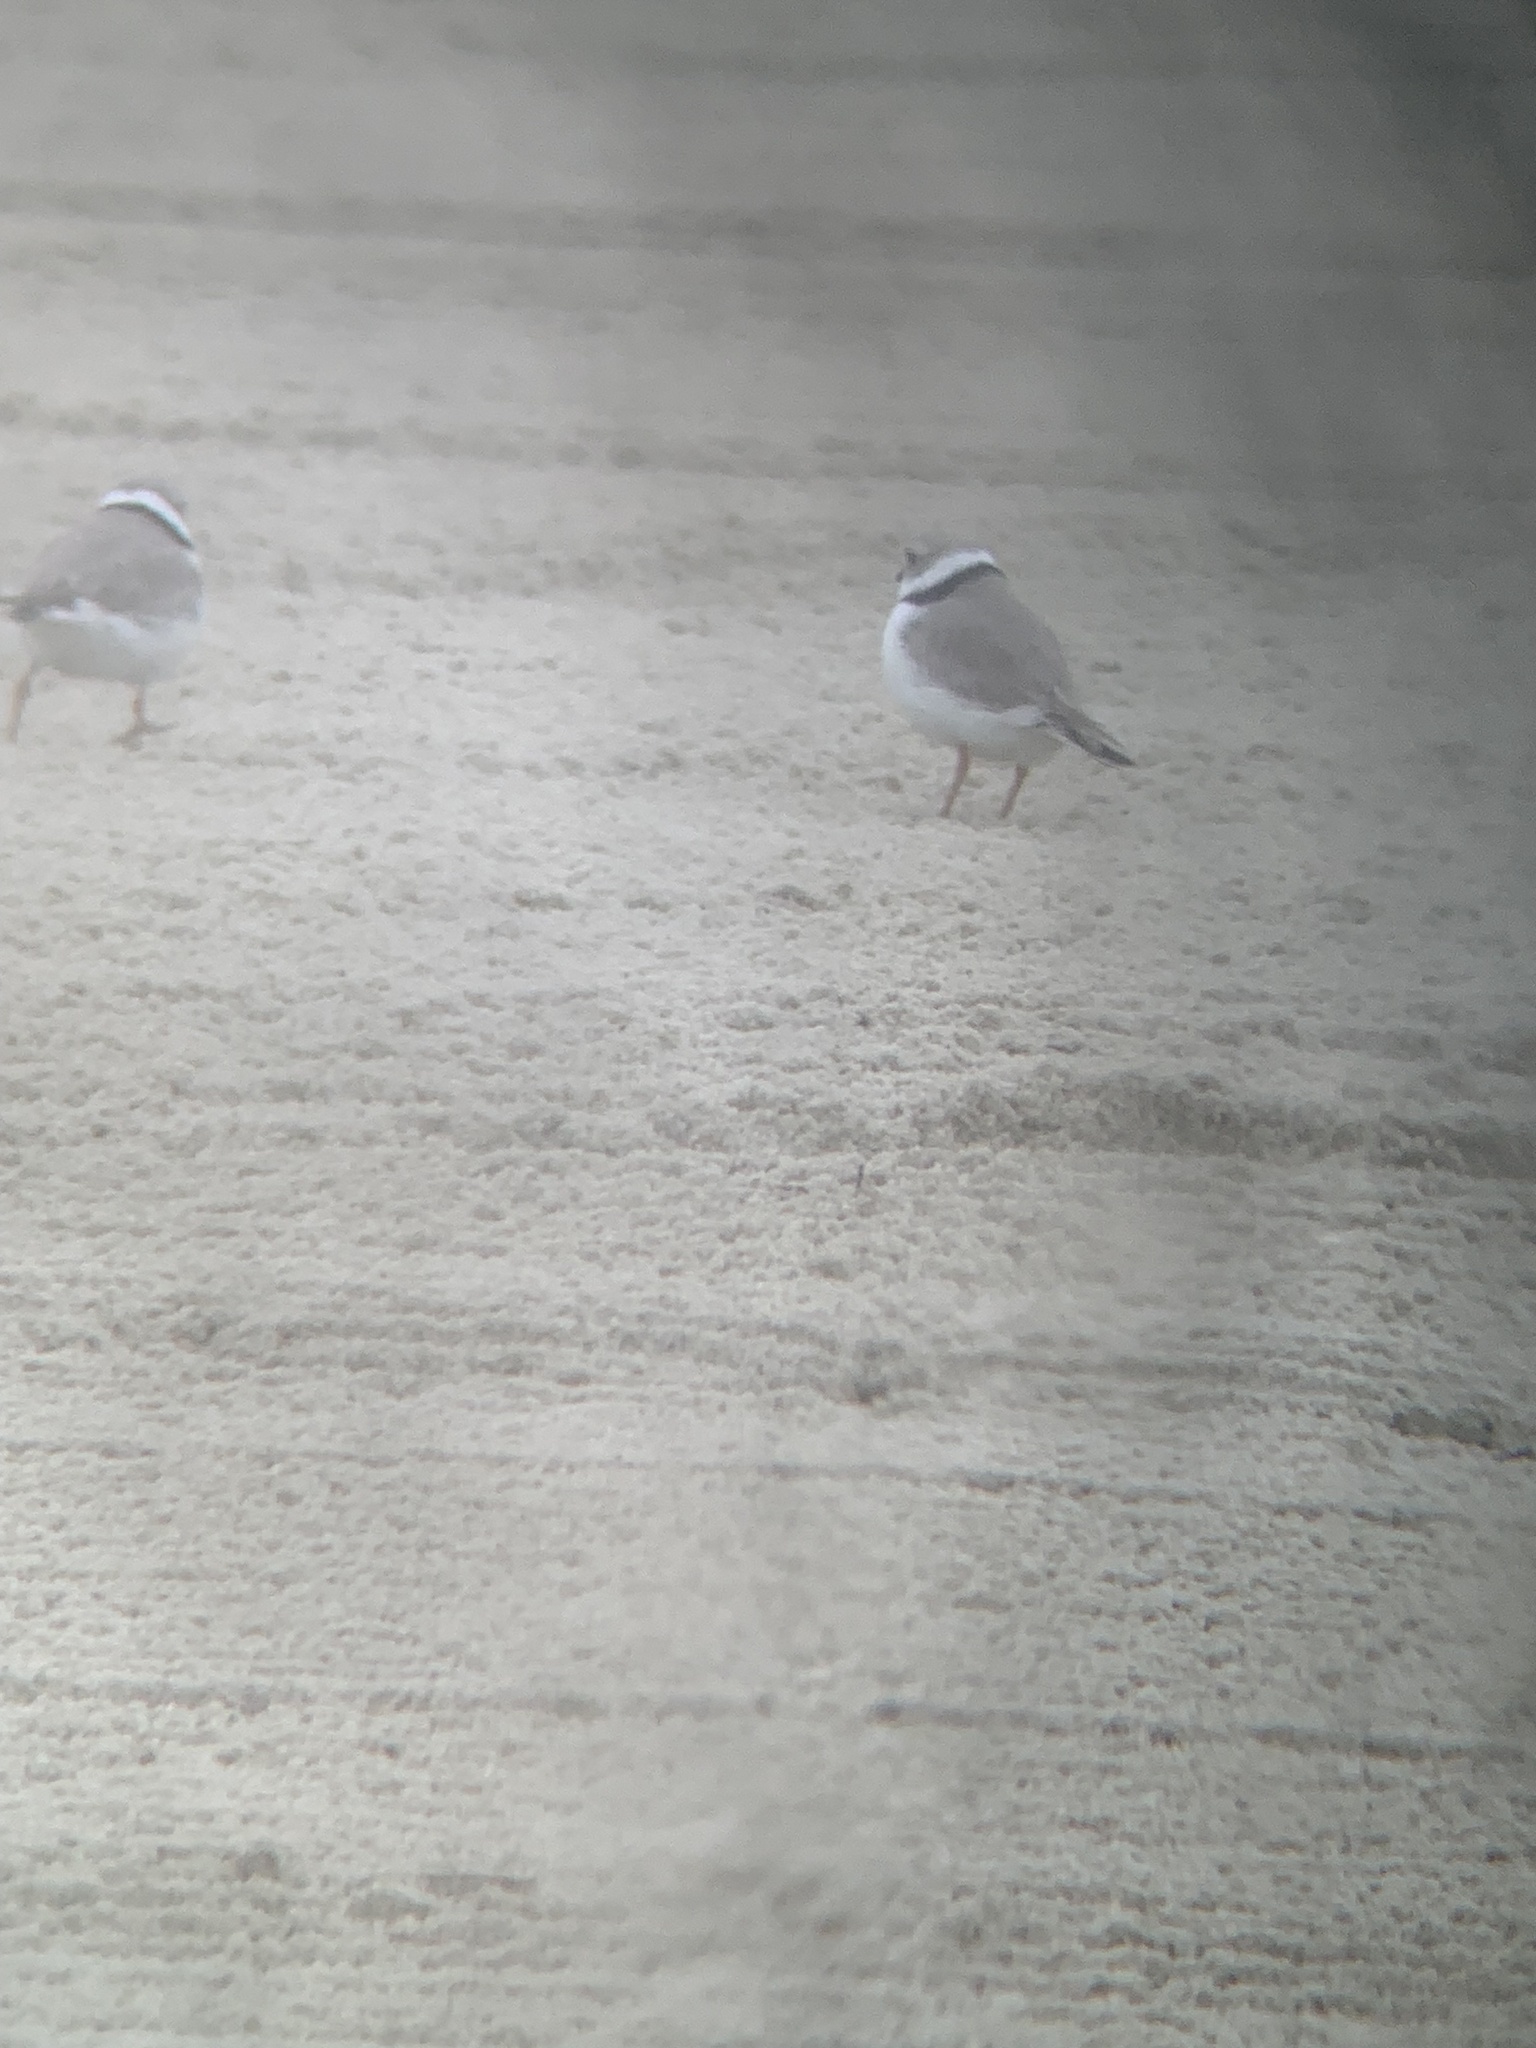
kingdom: Animalia
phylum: Chordata
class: Aves
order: Charadriiformes
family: Charadriidae
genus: Charadrius
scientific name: Charadrius melodus
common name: Piping plover
